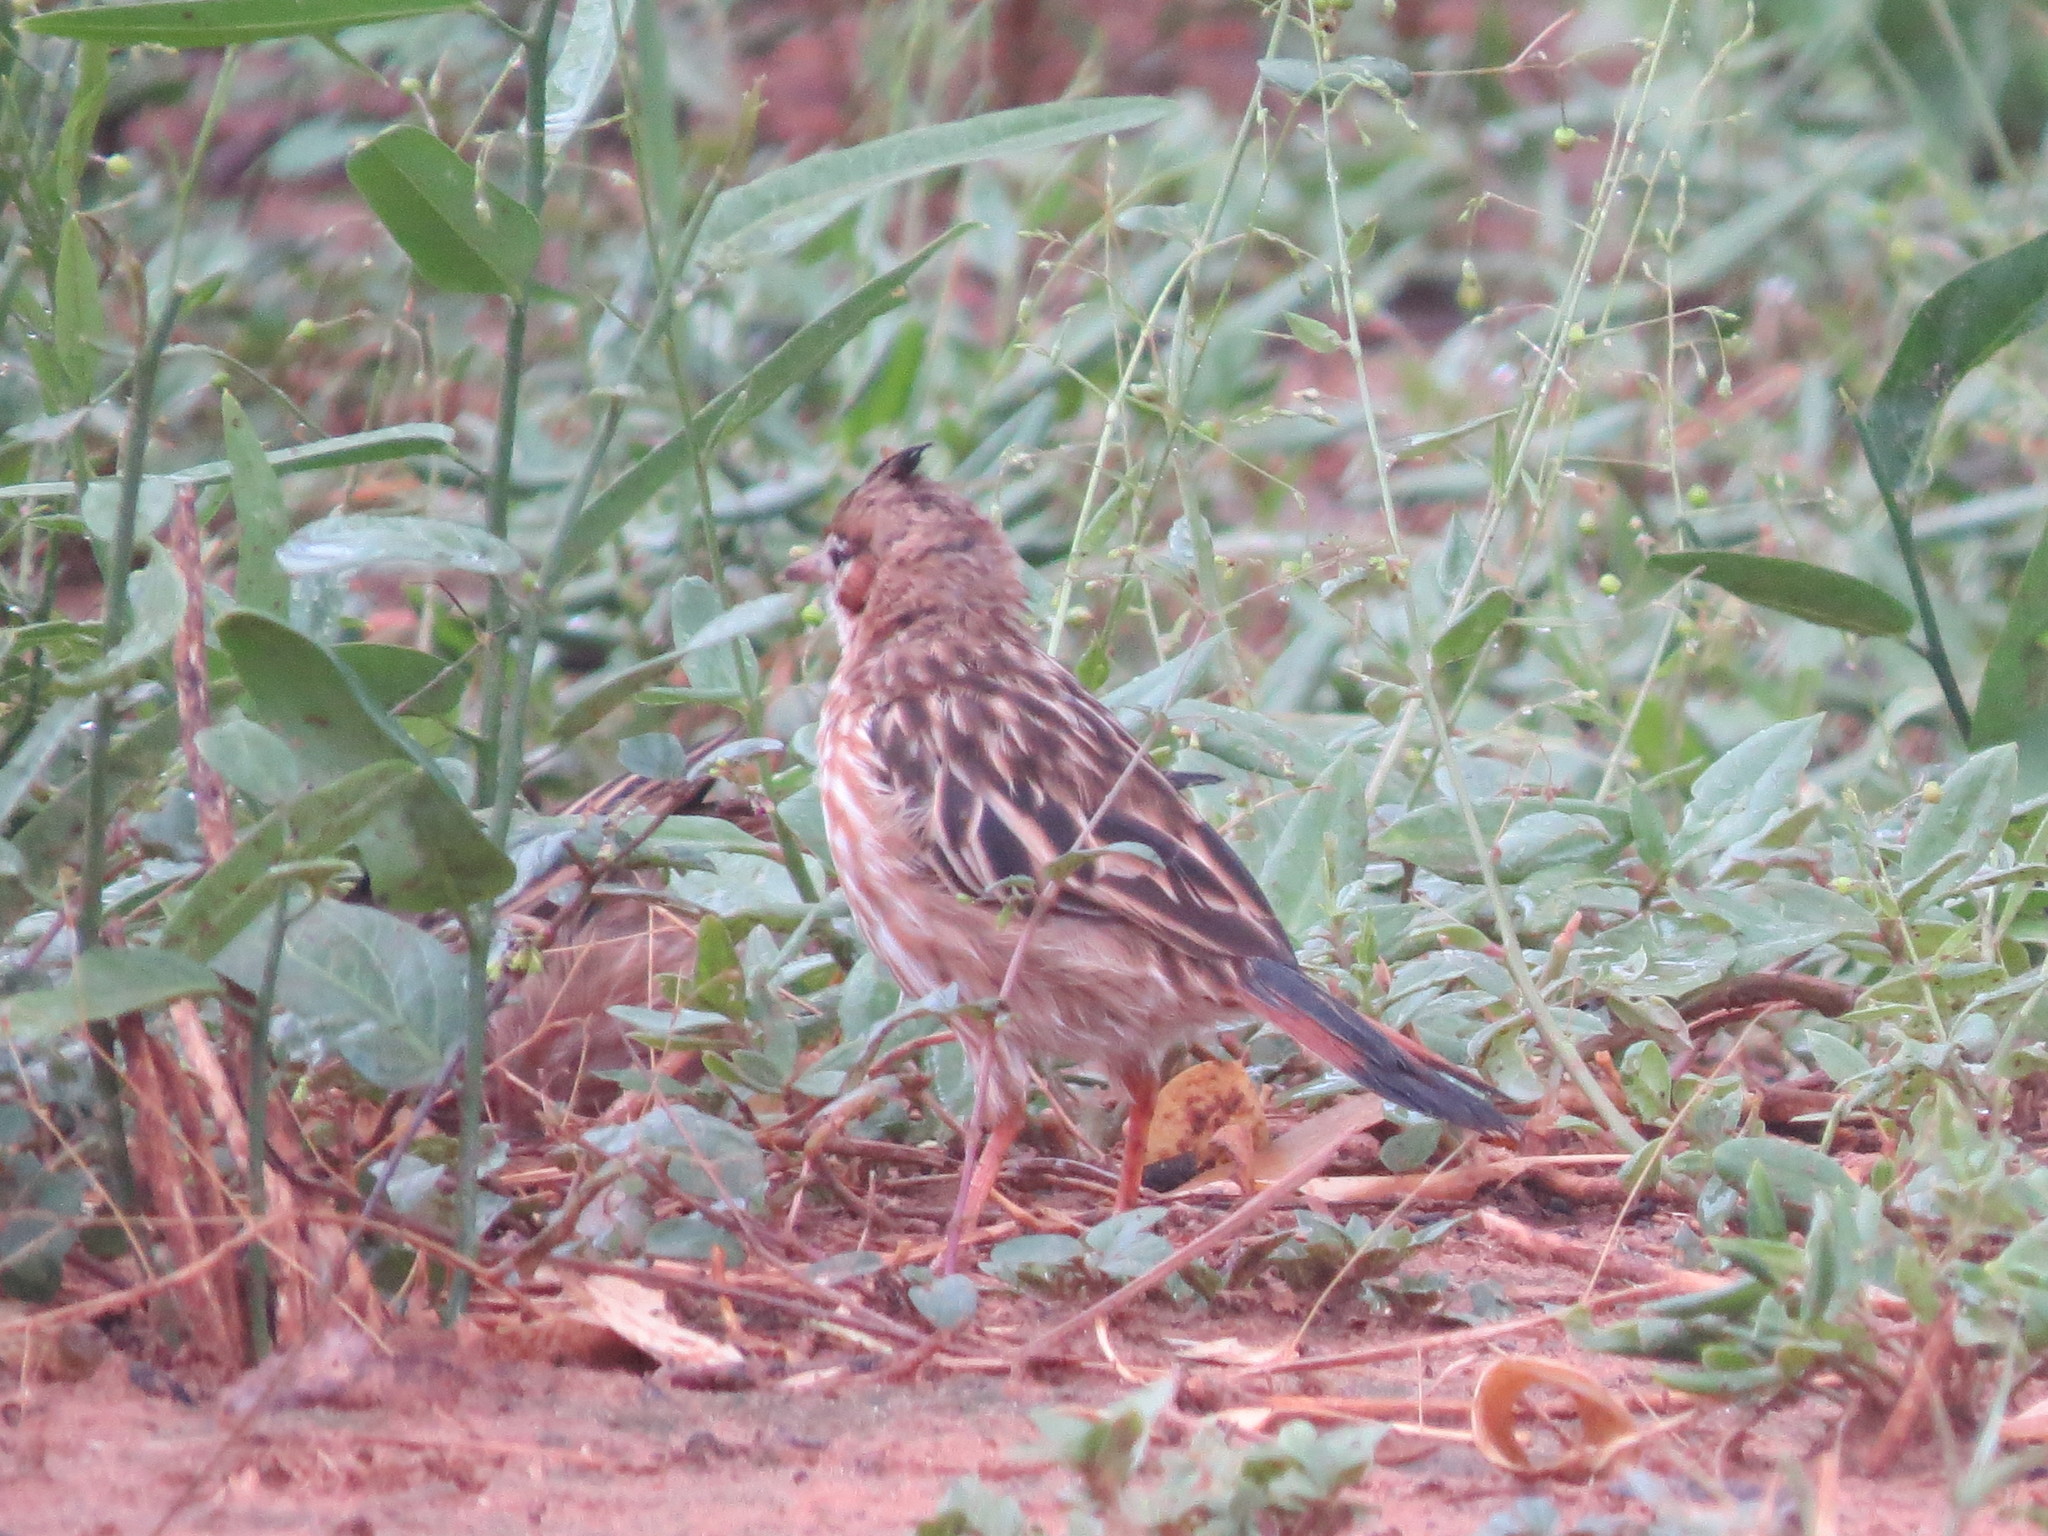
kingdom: Animalia
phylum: Chordata
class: Aves
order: Passeriformes
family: Furnariidae
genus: Coryphistera
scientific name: Coryphistera alaudina
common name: Lark-like brushrunner
